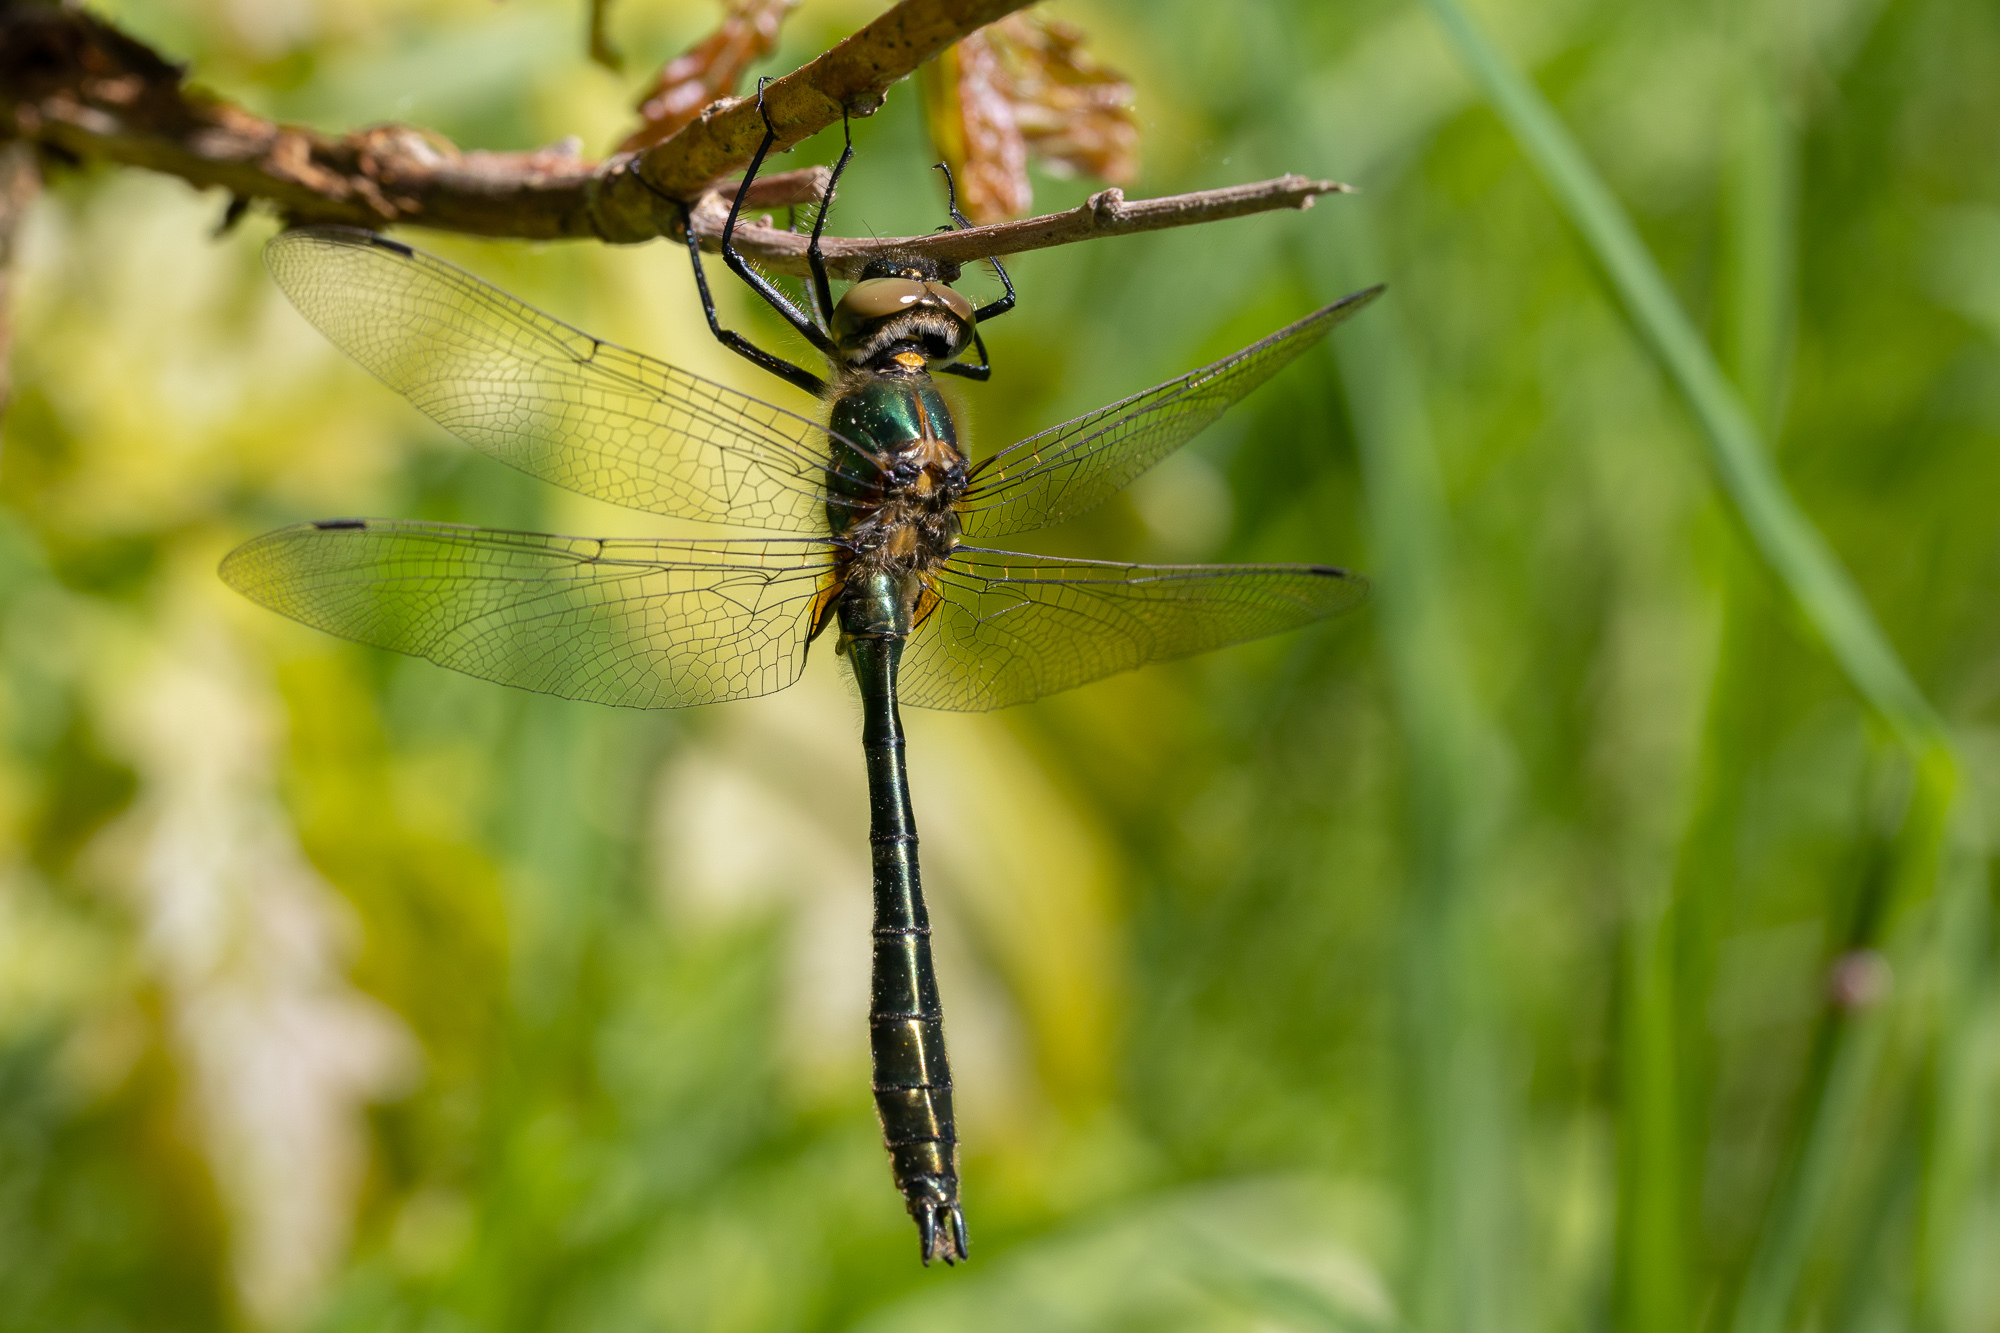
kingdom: Animalia
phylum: Arthropoda
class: Insecta
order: Odonata
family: Corduliidae
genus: Cordulia
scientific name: Cordulia aenea
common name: Downy emerald
